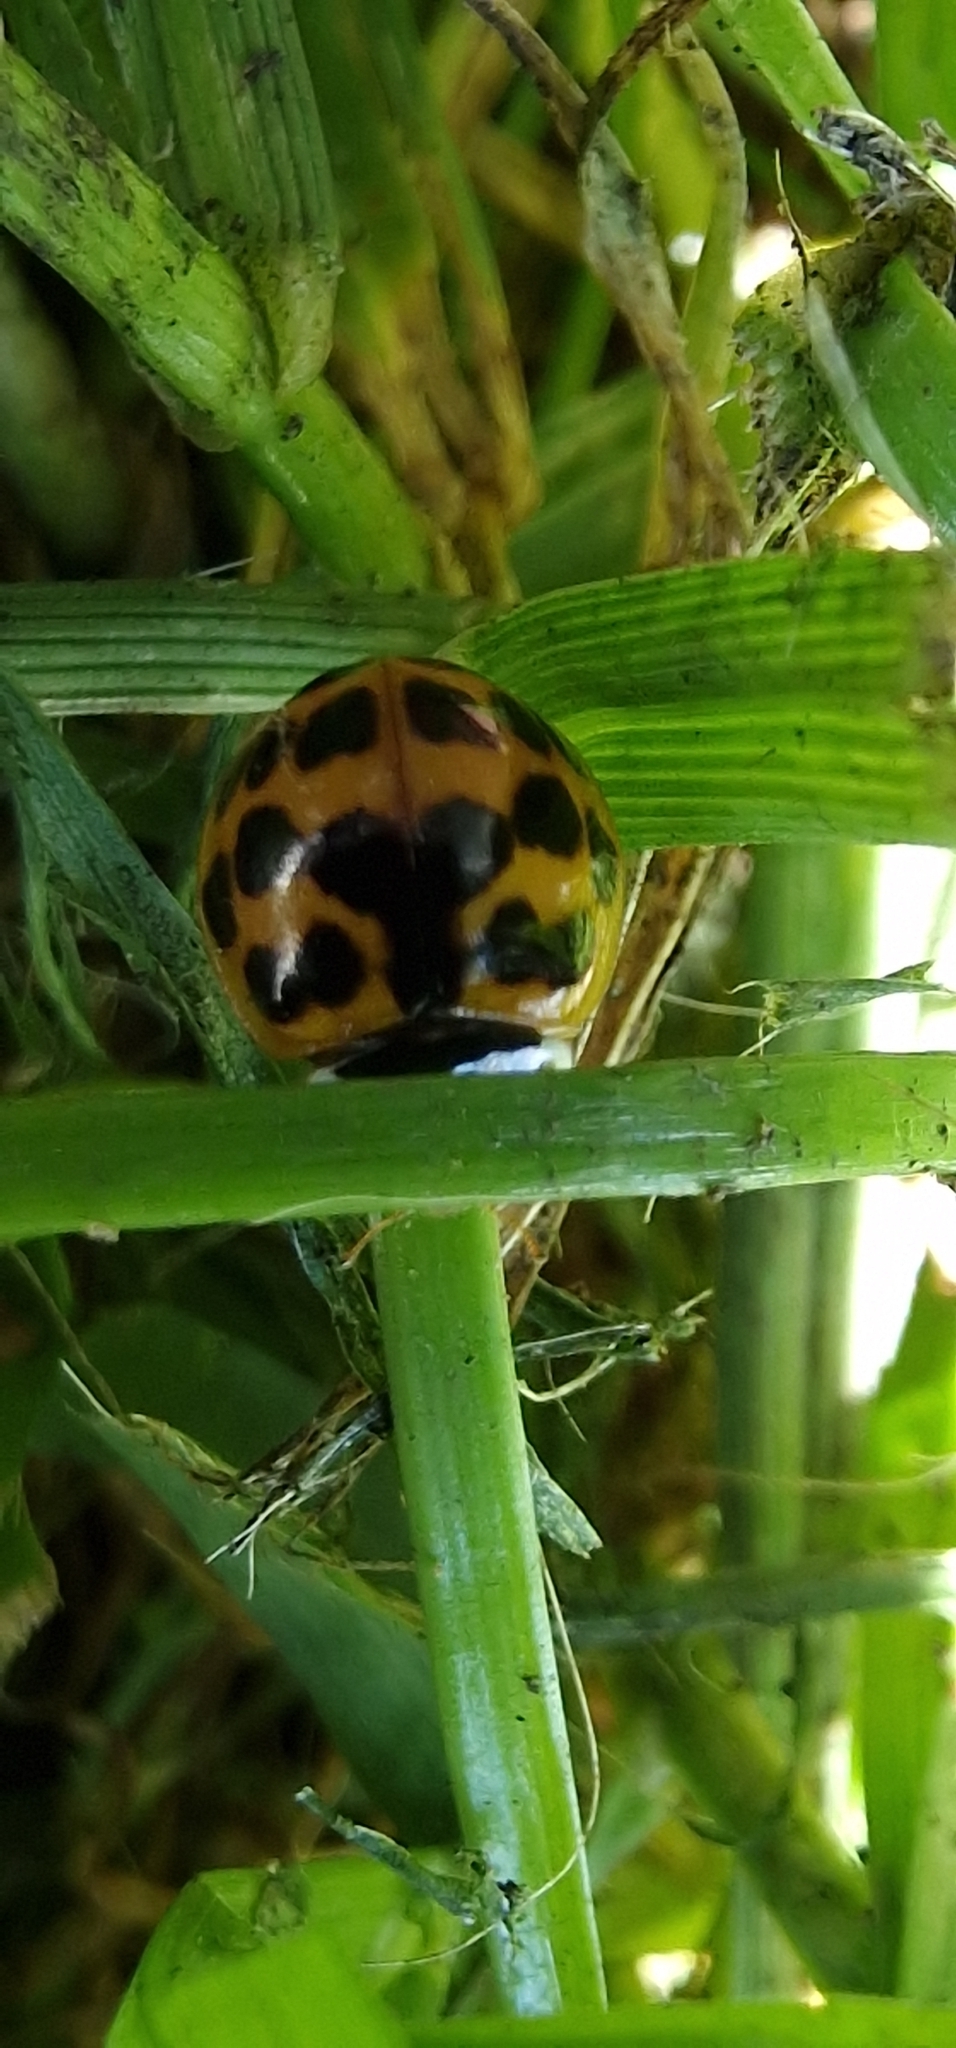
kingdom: Animalia
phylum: Arthropoda
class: Insecta
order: Coleoptera
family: Coccinellidae
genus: Harmonia
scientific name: Harmonia axyridis
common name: Harlequin ladybird
